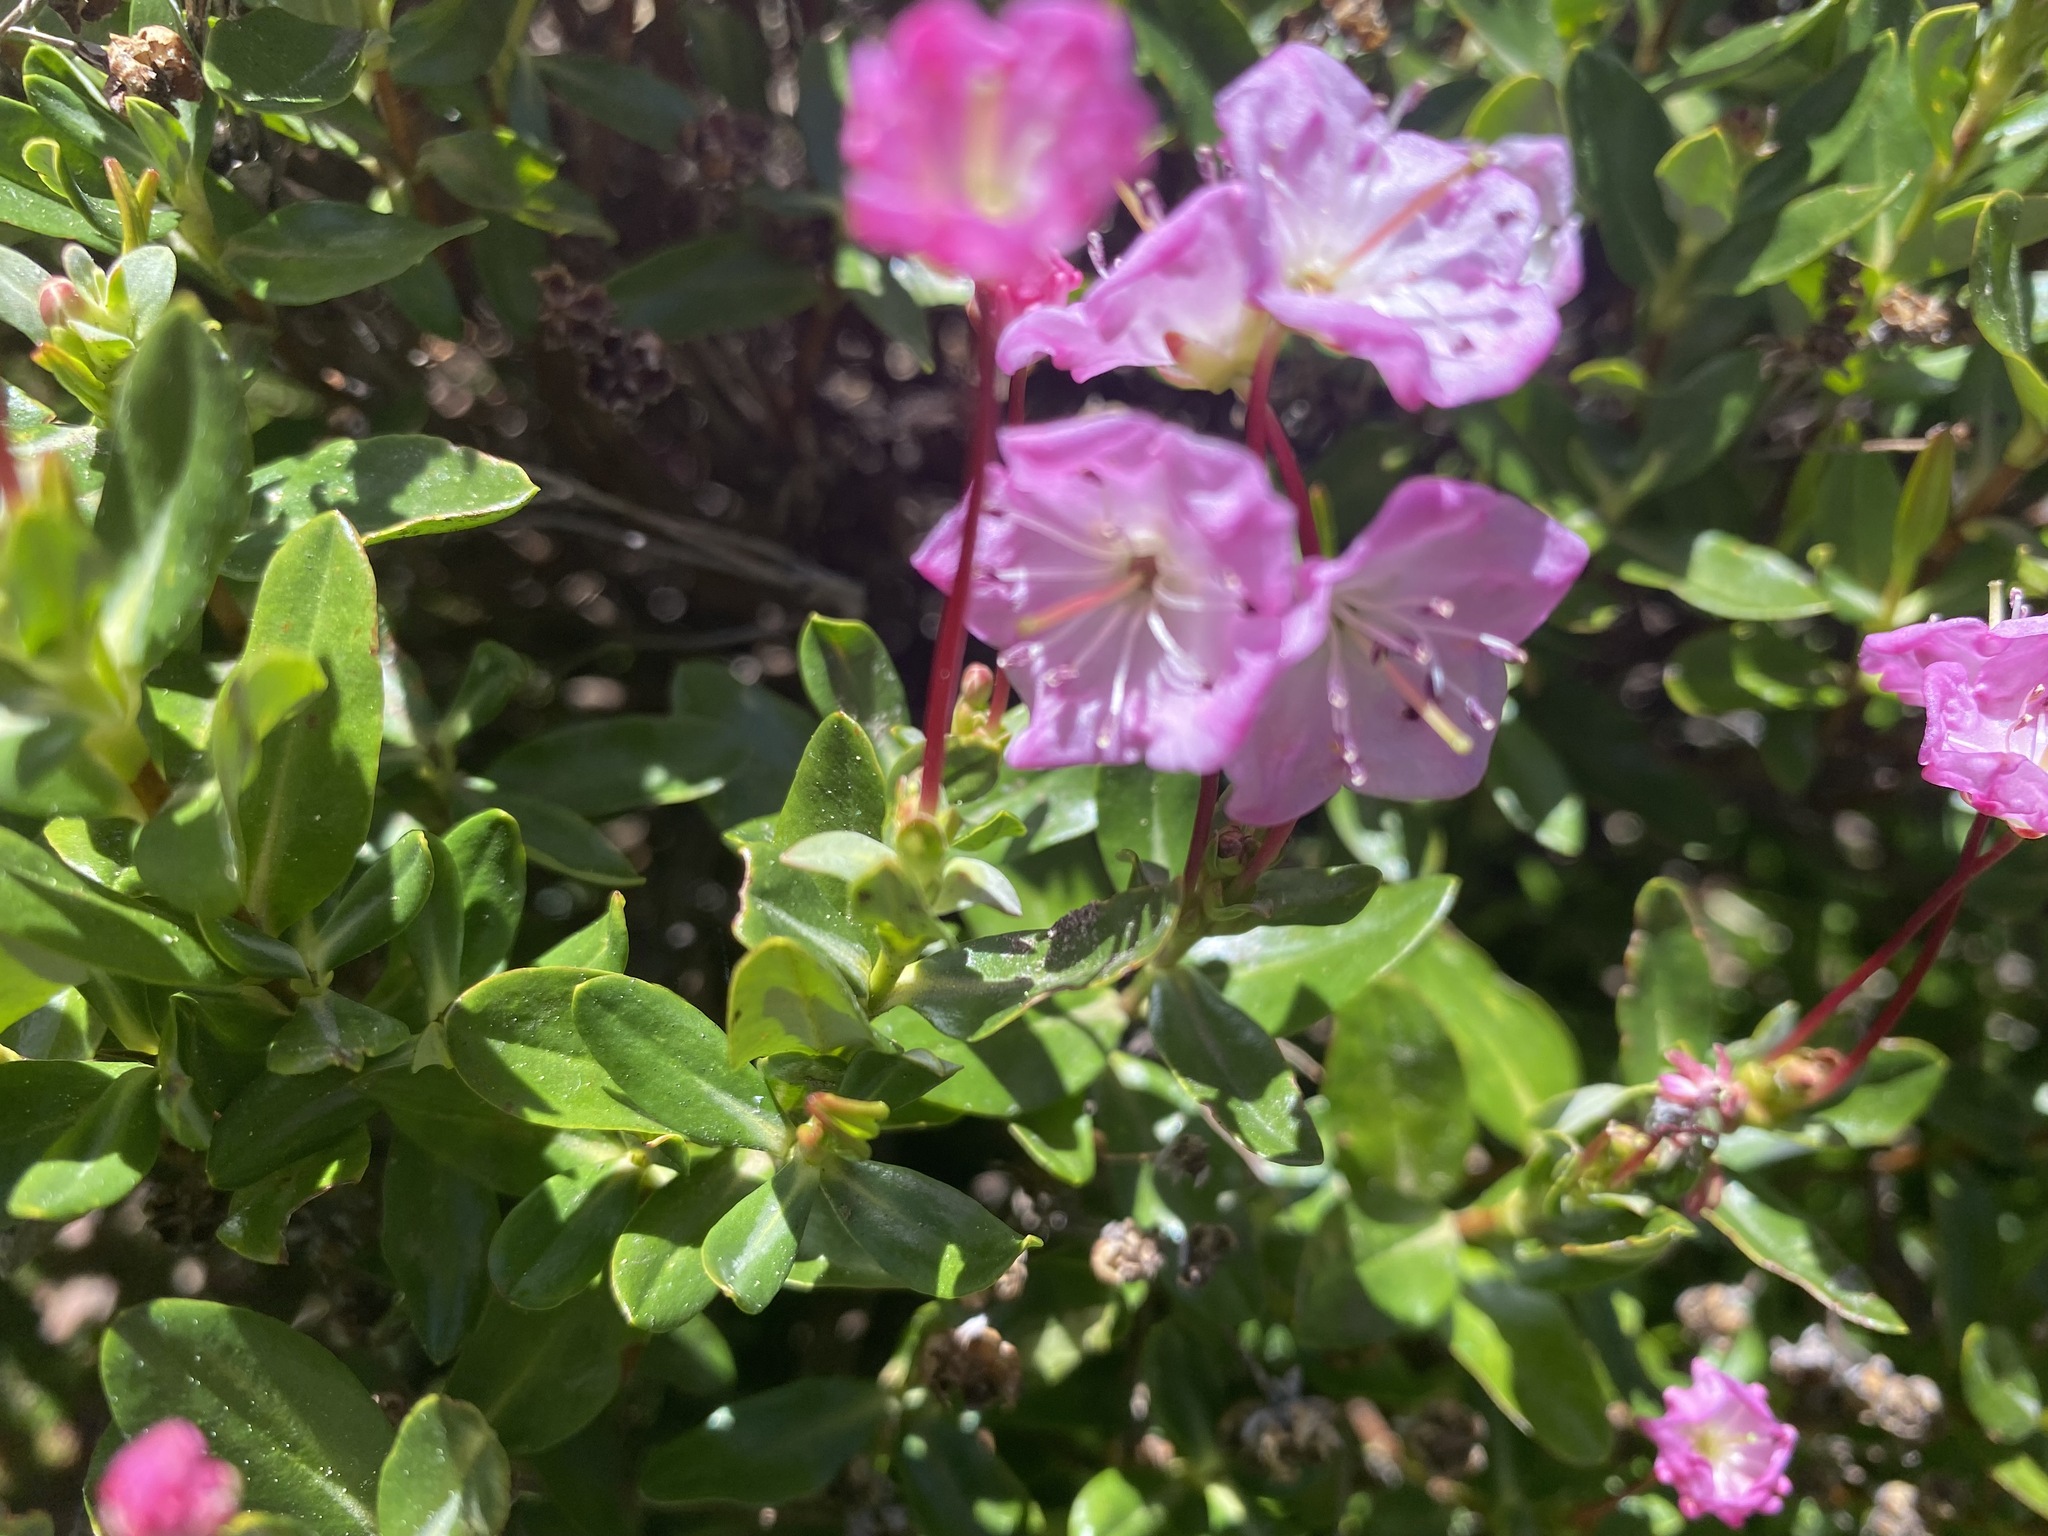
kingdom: Plantae
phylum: Tracheophyta
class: Magnoliopsida
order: Ericales
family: Ericaceae
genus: Kalmia
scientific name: Kalmia microphylla
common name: Alpine bog laurel
